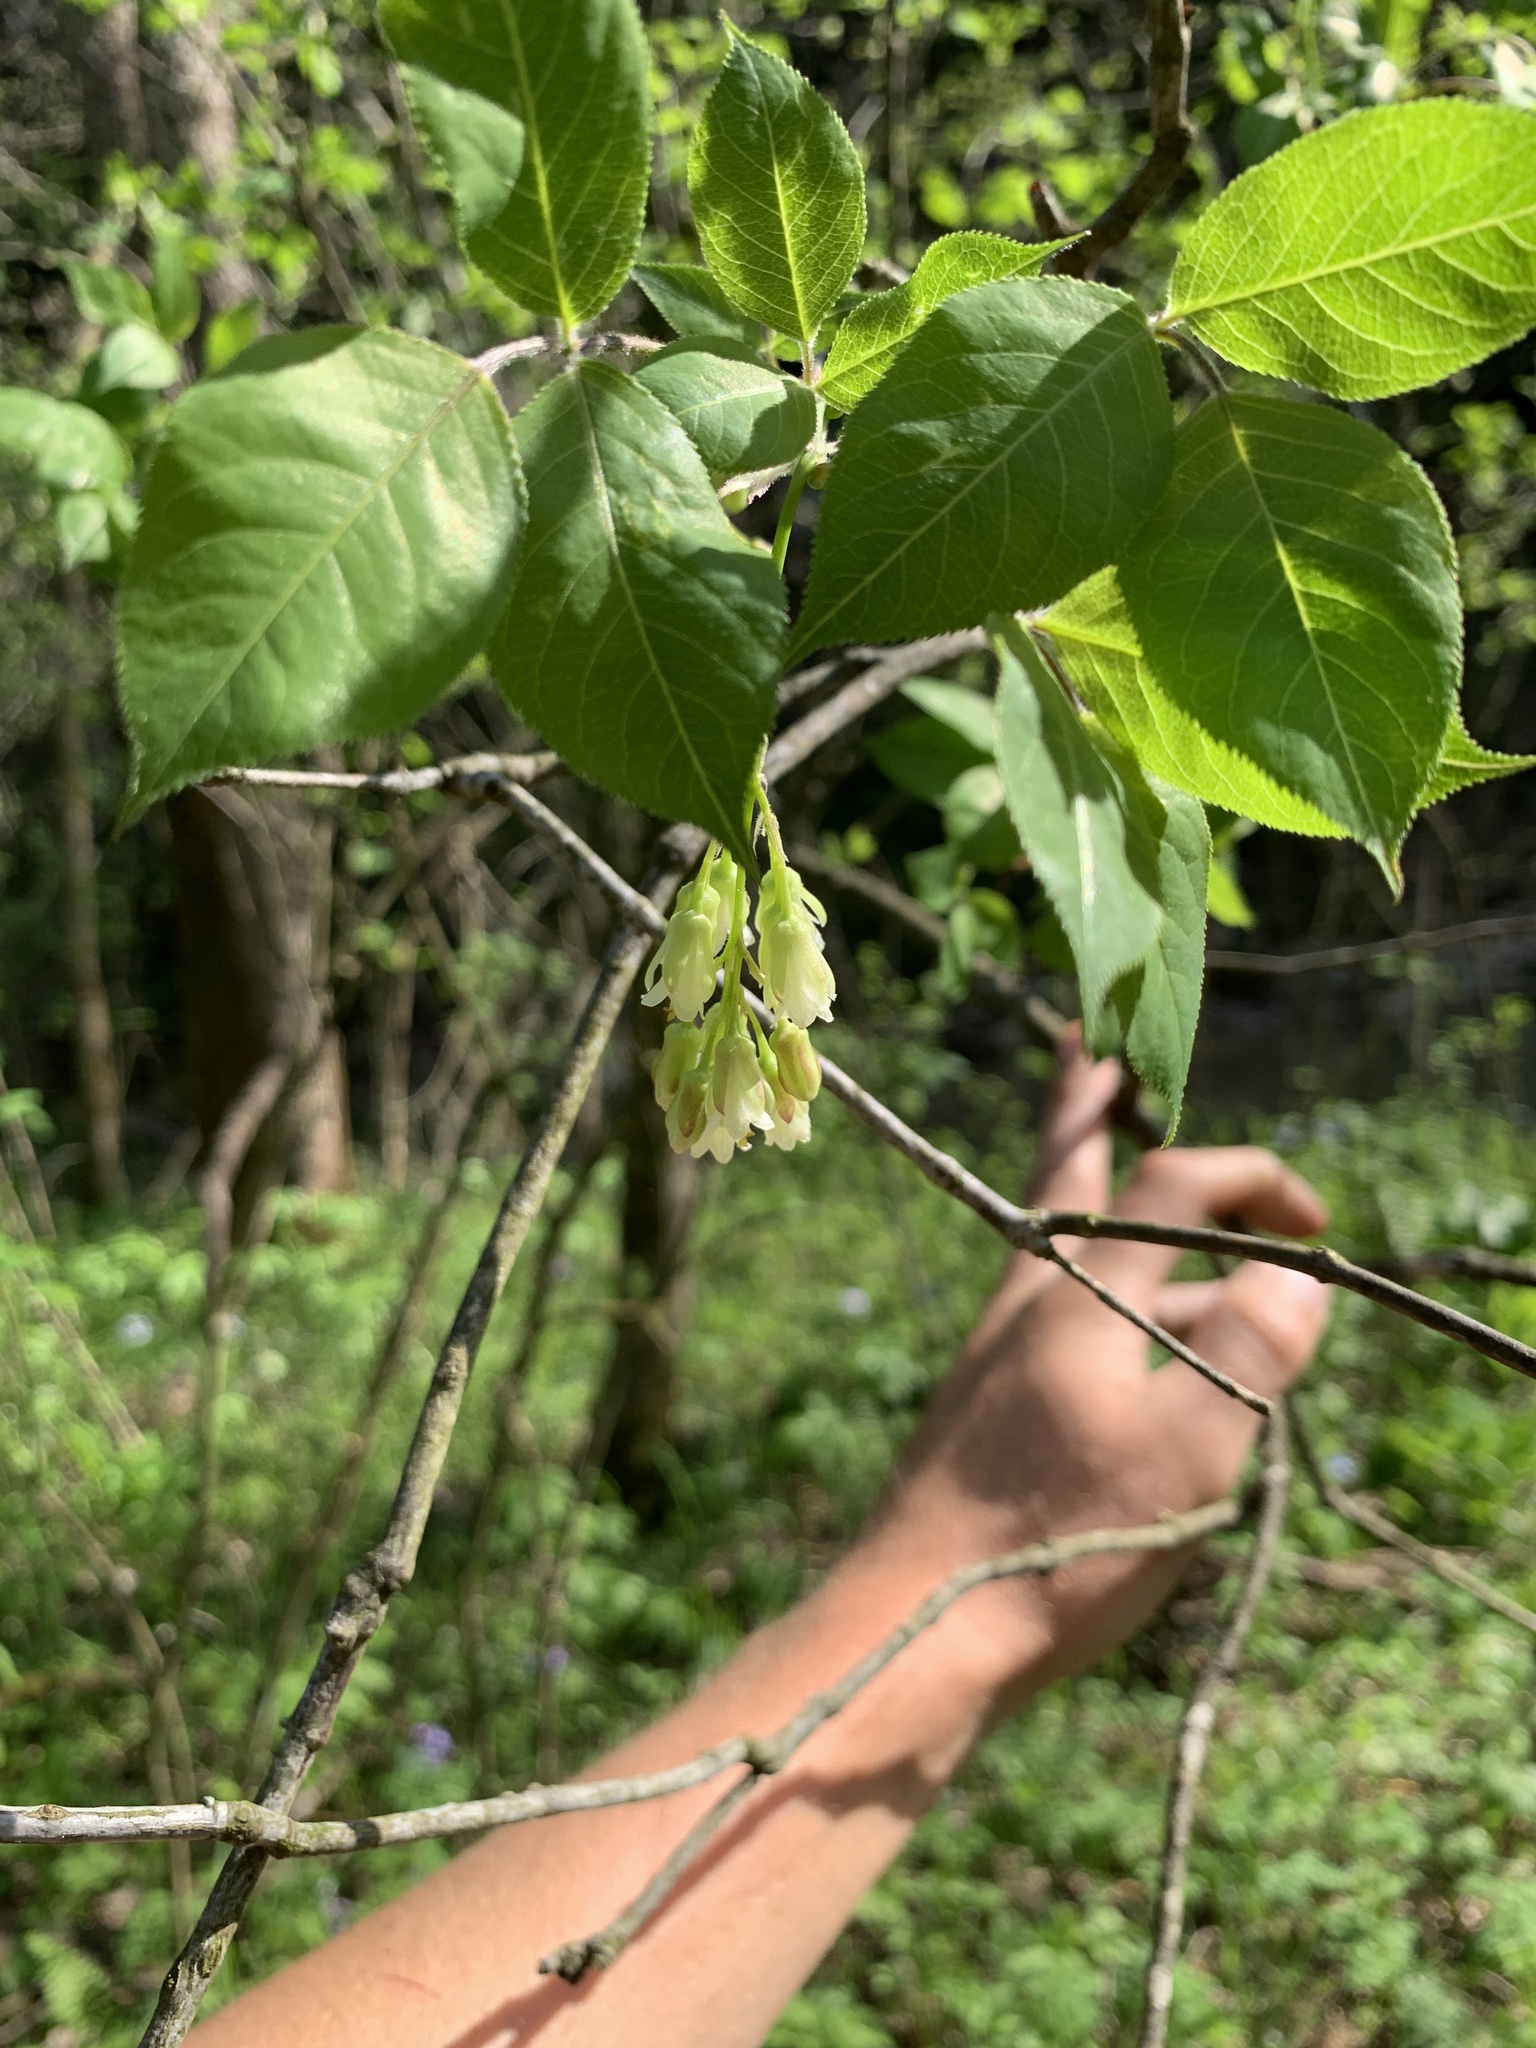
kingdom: Plantae
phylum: Tracheophyta
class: Magnoliopsida
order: Crossosomatales
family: Staphyleaceae
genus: Staphylea
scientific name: Staphylea trifolia
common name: American bladdernut
